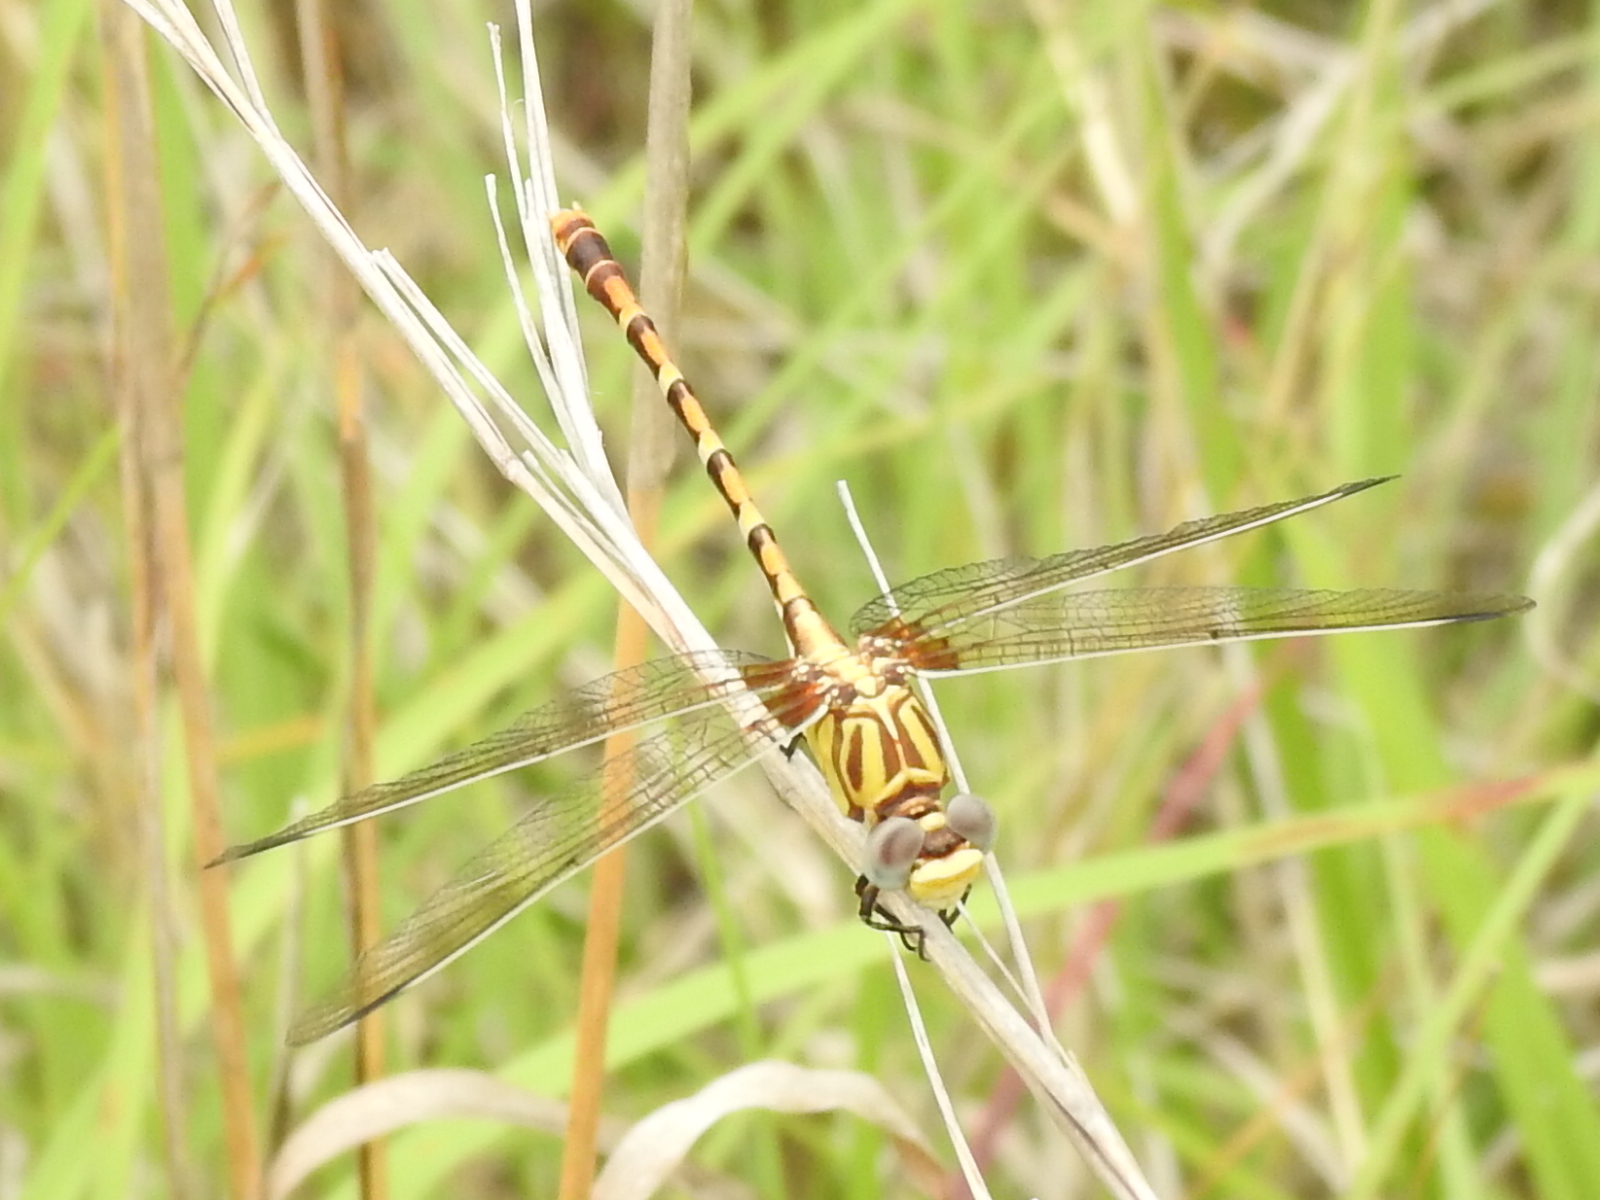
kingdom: Animalia
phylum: Arthropoda
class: Insecta
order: Odonata
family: Gomphidae
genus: Erpetogomphus
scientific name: Erpetogomphus designatus
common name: Eastern ringtail
